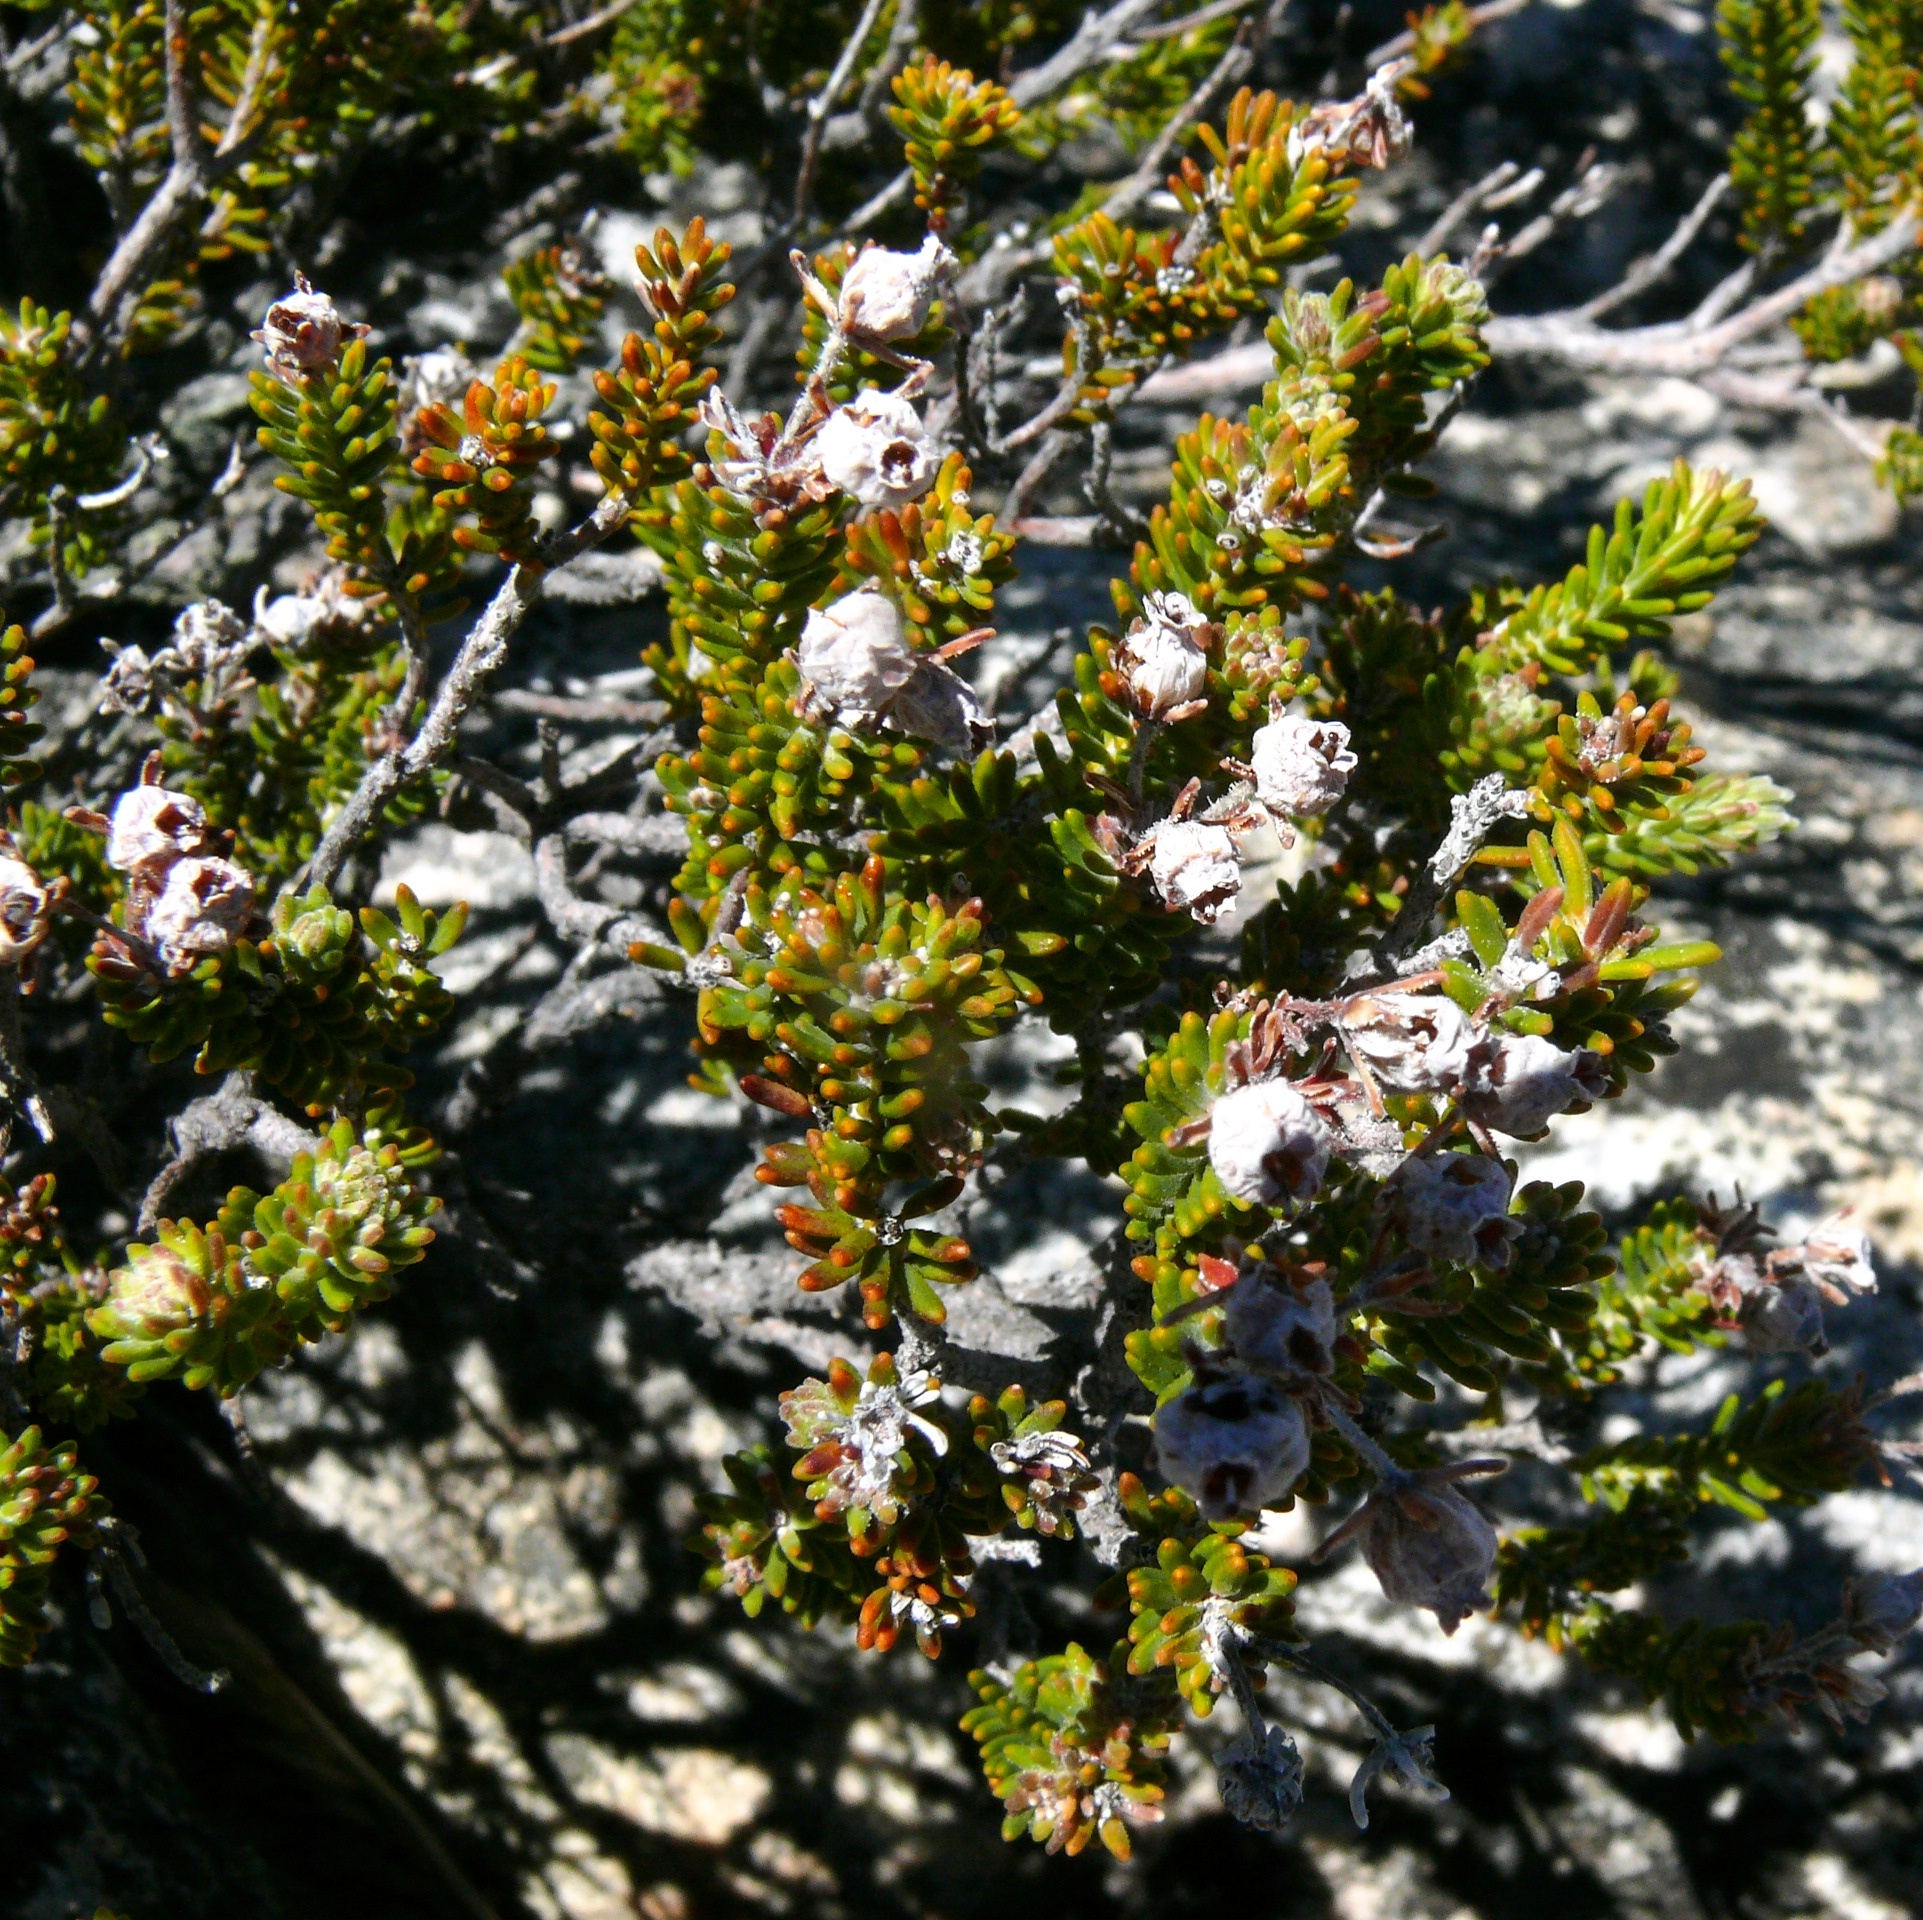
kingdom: Plantae
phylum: Tracheophyta
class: Magnoliopsida
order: Ericales
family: Ericaceae
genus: Erica
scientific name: Erica oresigena
